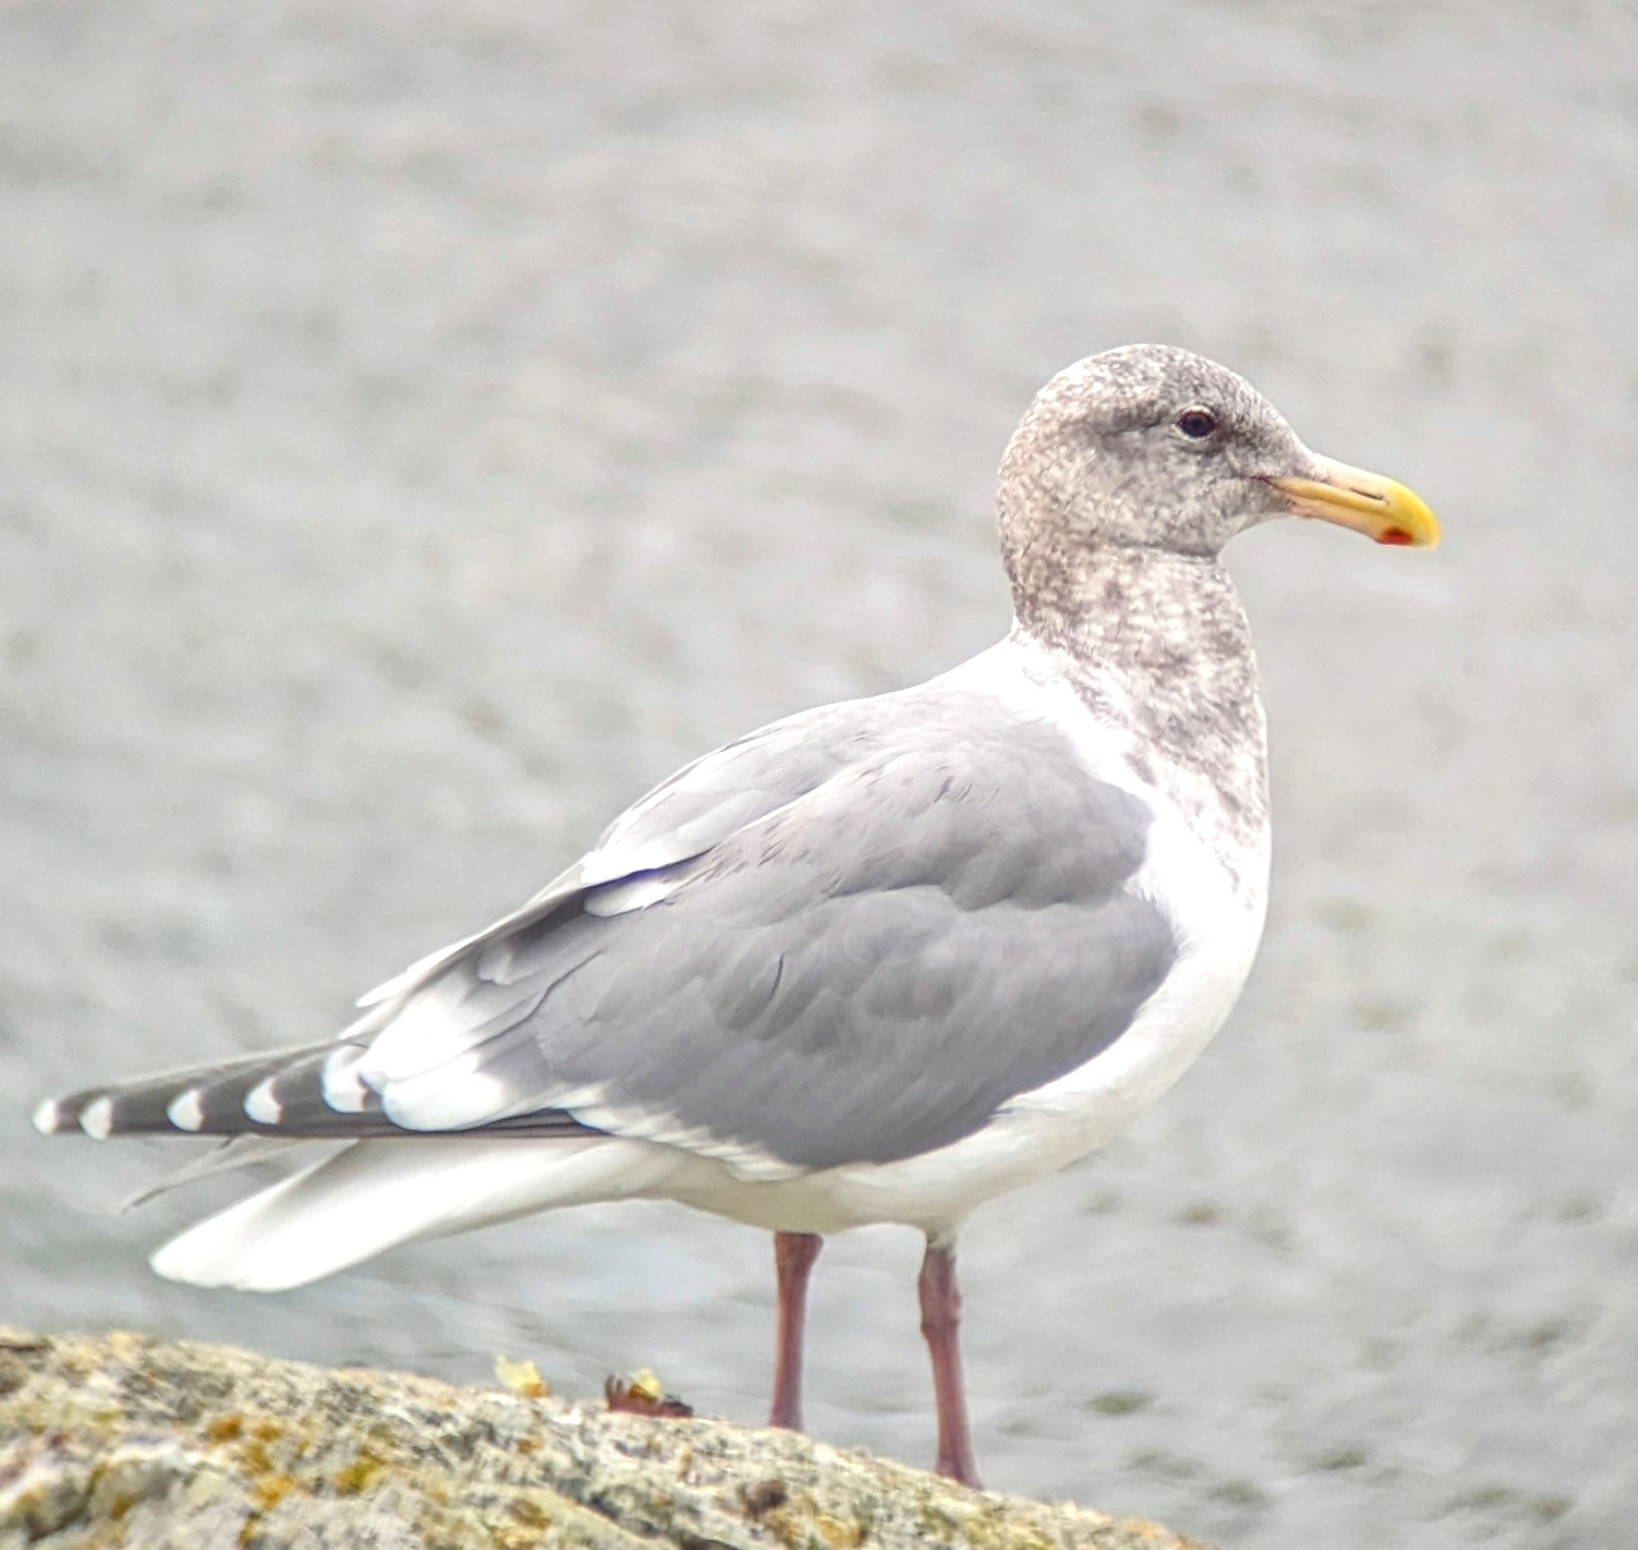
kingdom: Animalia
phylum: Chordata
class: Aves
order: Charadriiformes
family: Laridae
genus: Larus
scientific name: Larus
